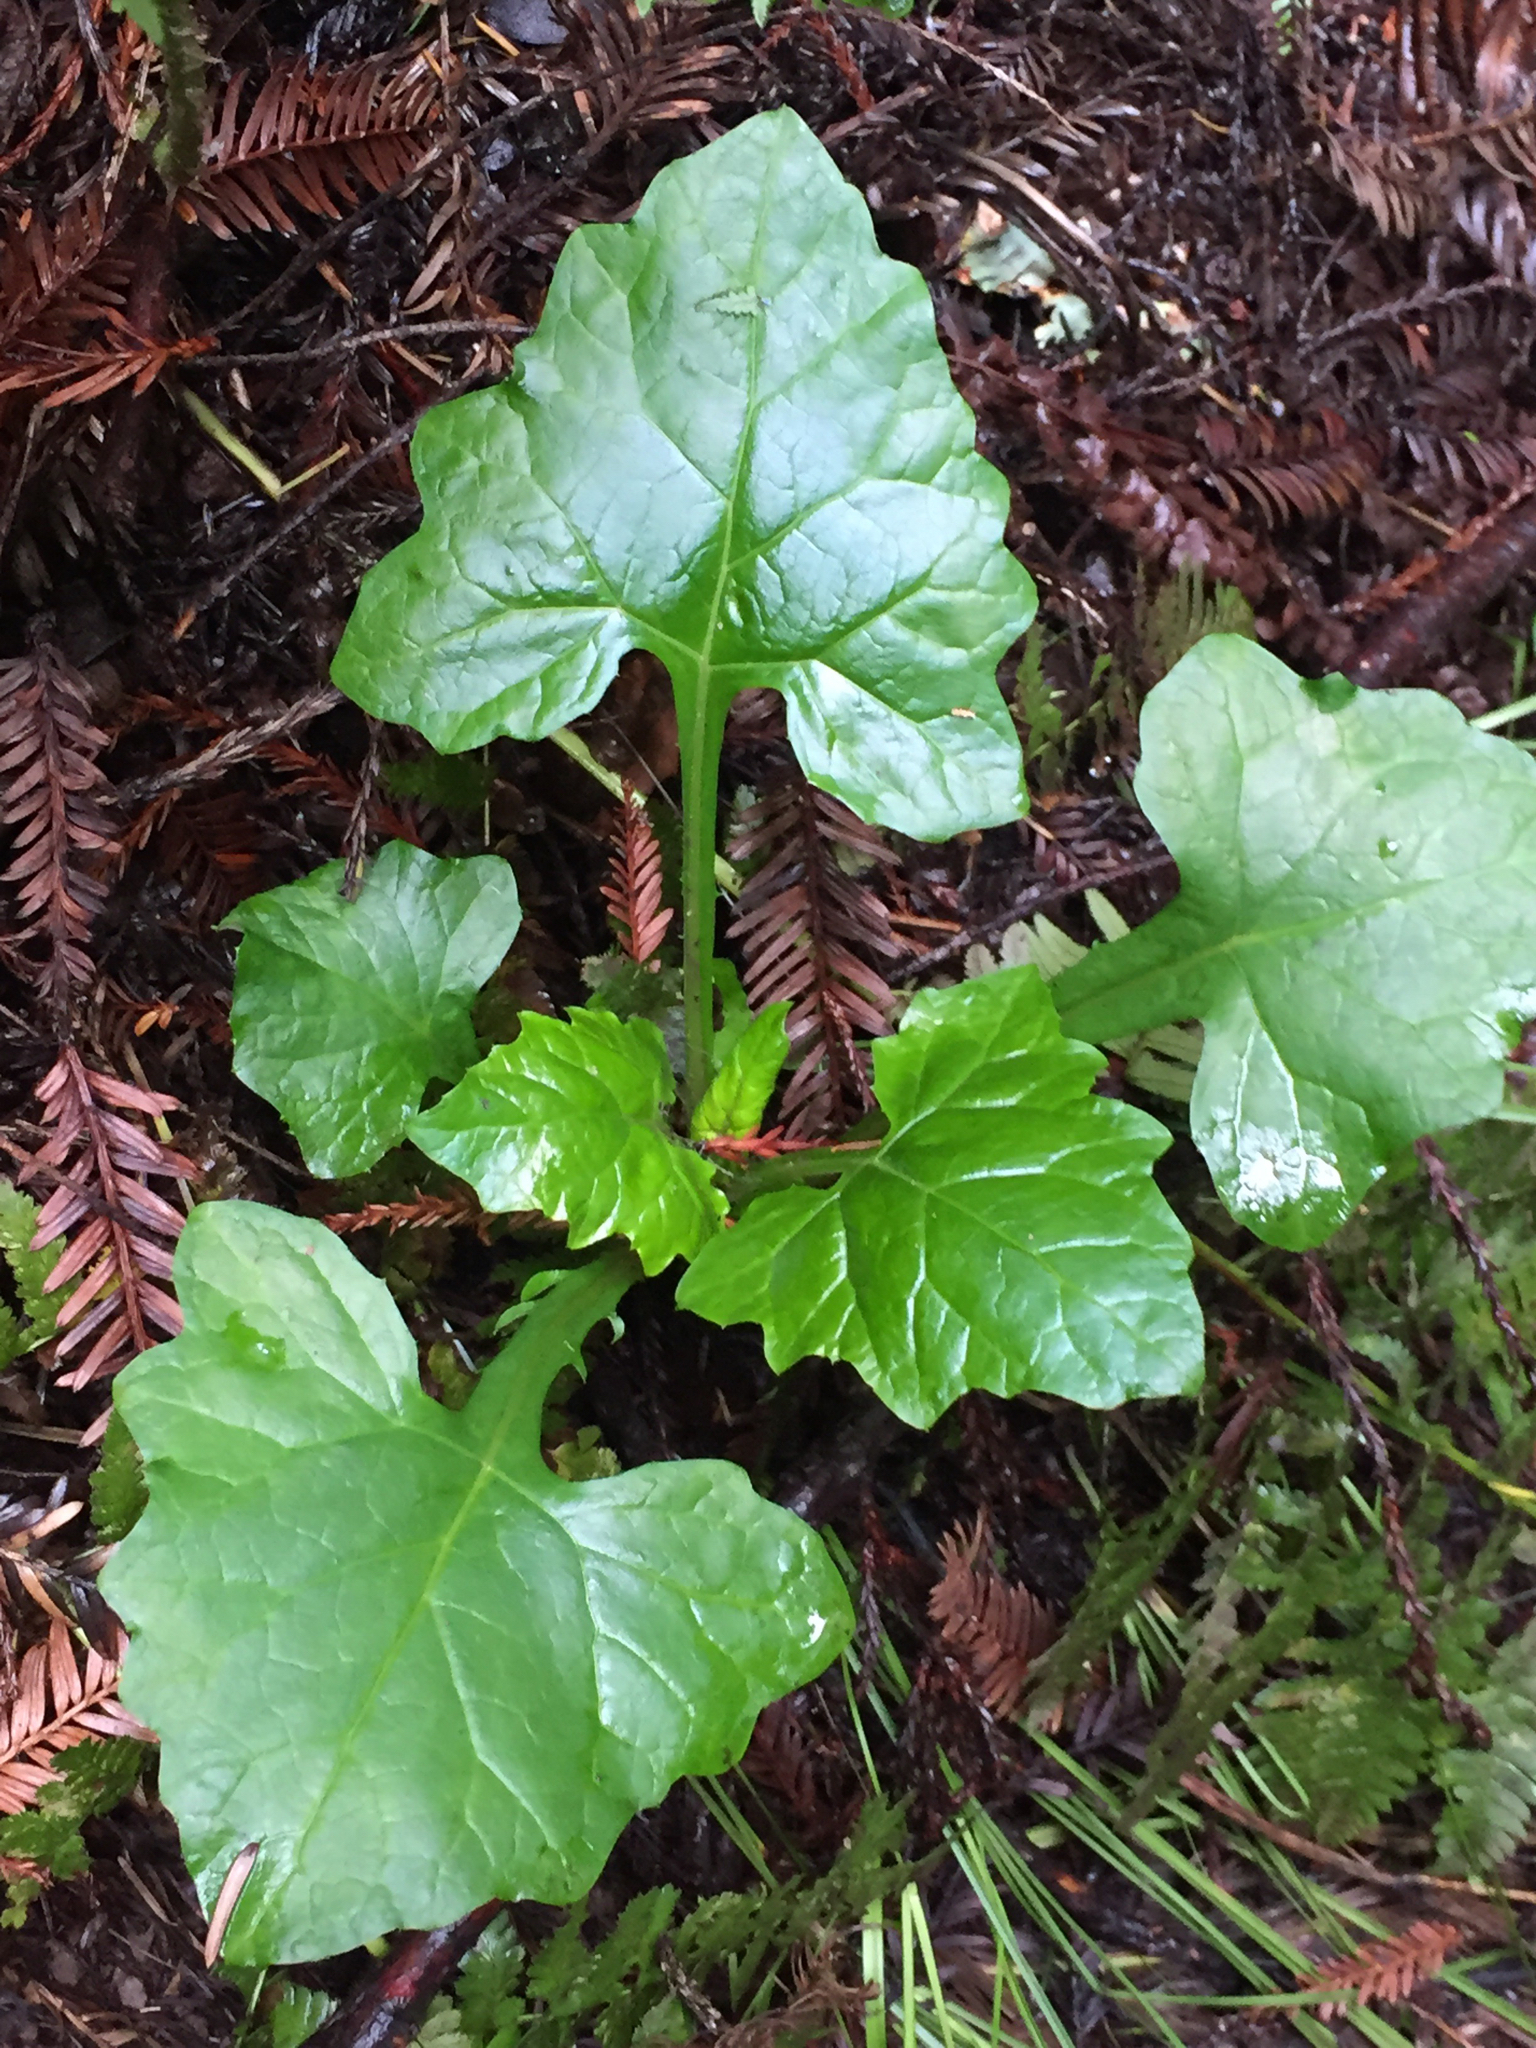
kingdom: Plantae
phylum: Tracheophyta
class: Magnoliopsida
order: Asterales
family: Asteraceae
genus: Adenocaulon
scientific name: Adenocaulon bicolor
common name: Trailplant
